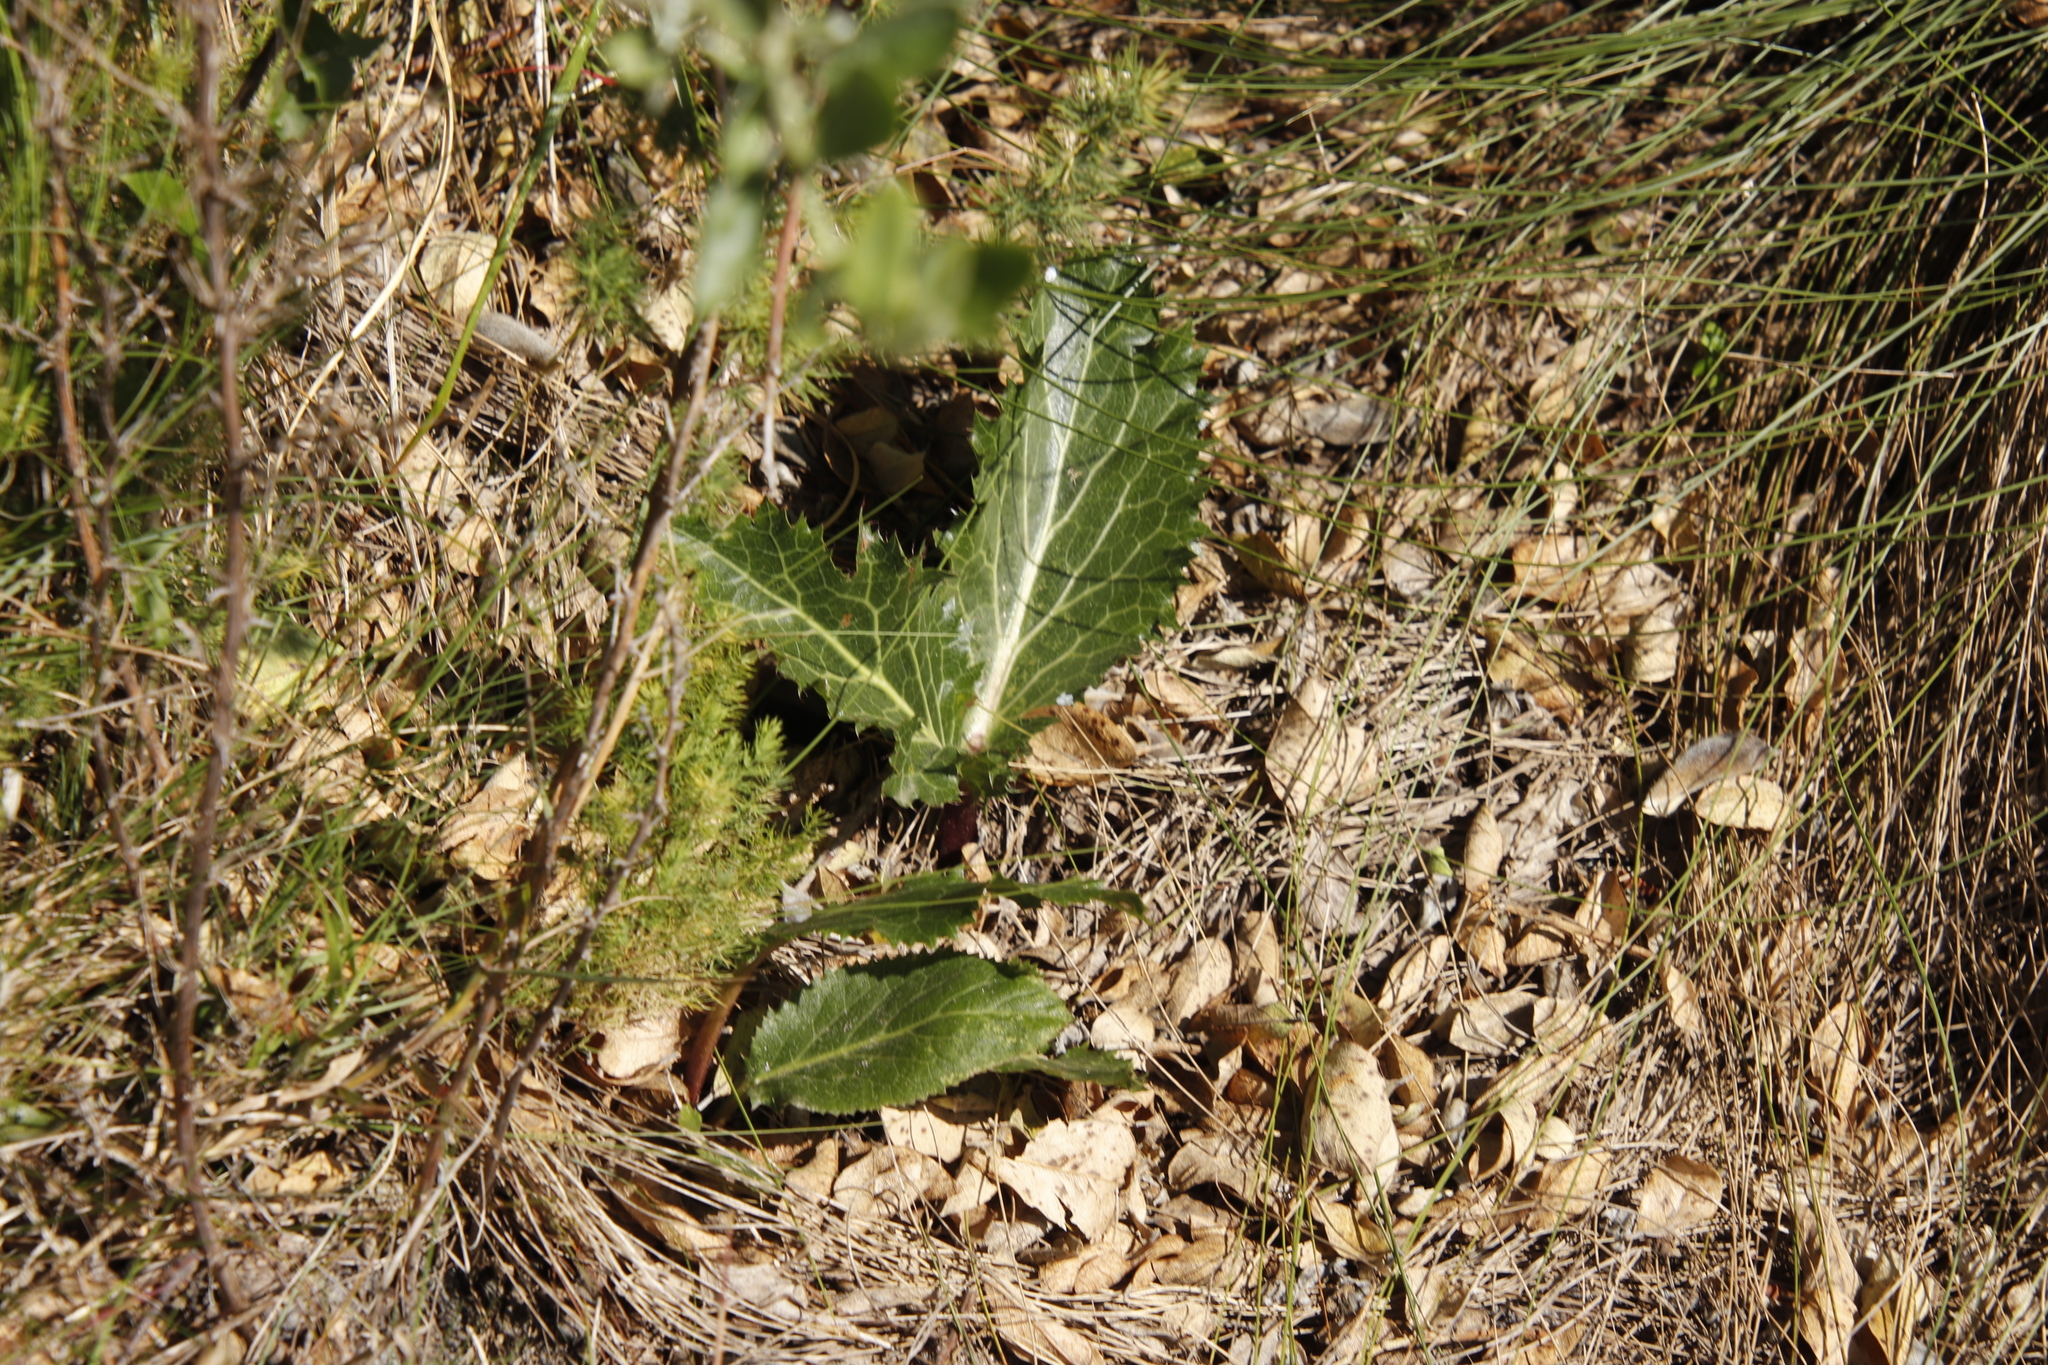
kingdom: Plantae
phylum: Tracheophyta
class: Magnoliopsida
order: Apiales
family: Apiaceae
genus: Lichtensteinia
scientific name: Lichtensteinia lacera
